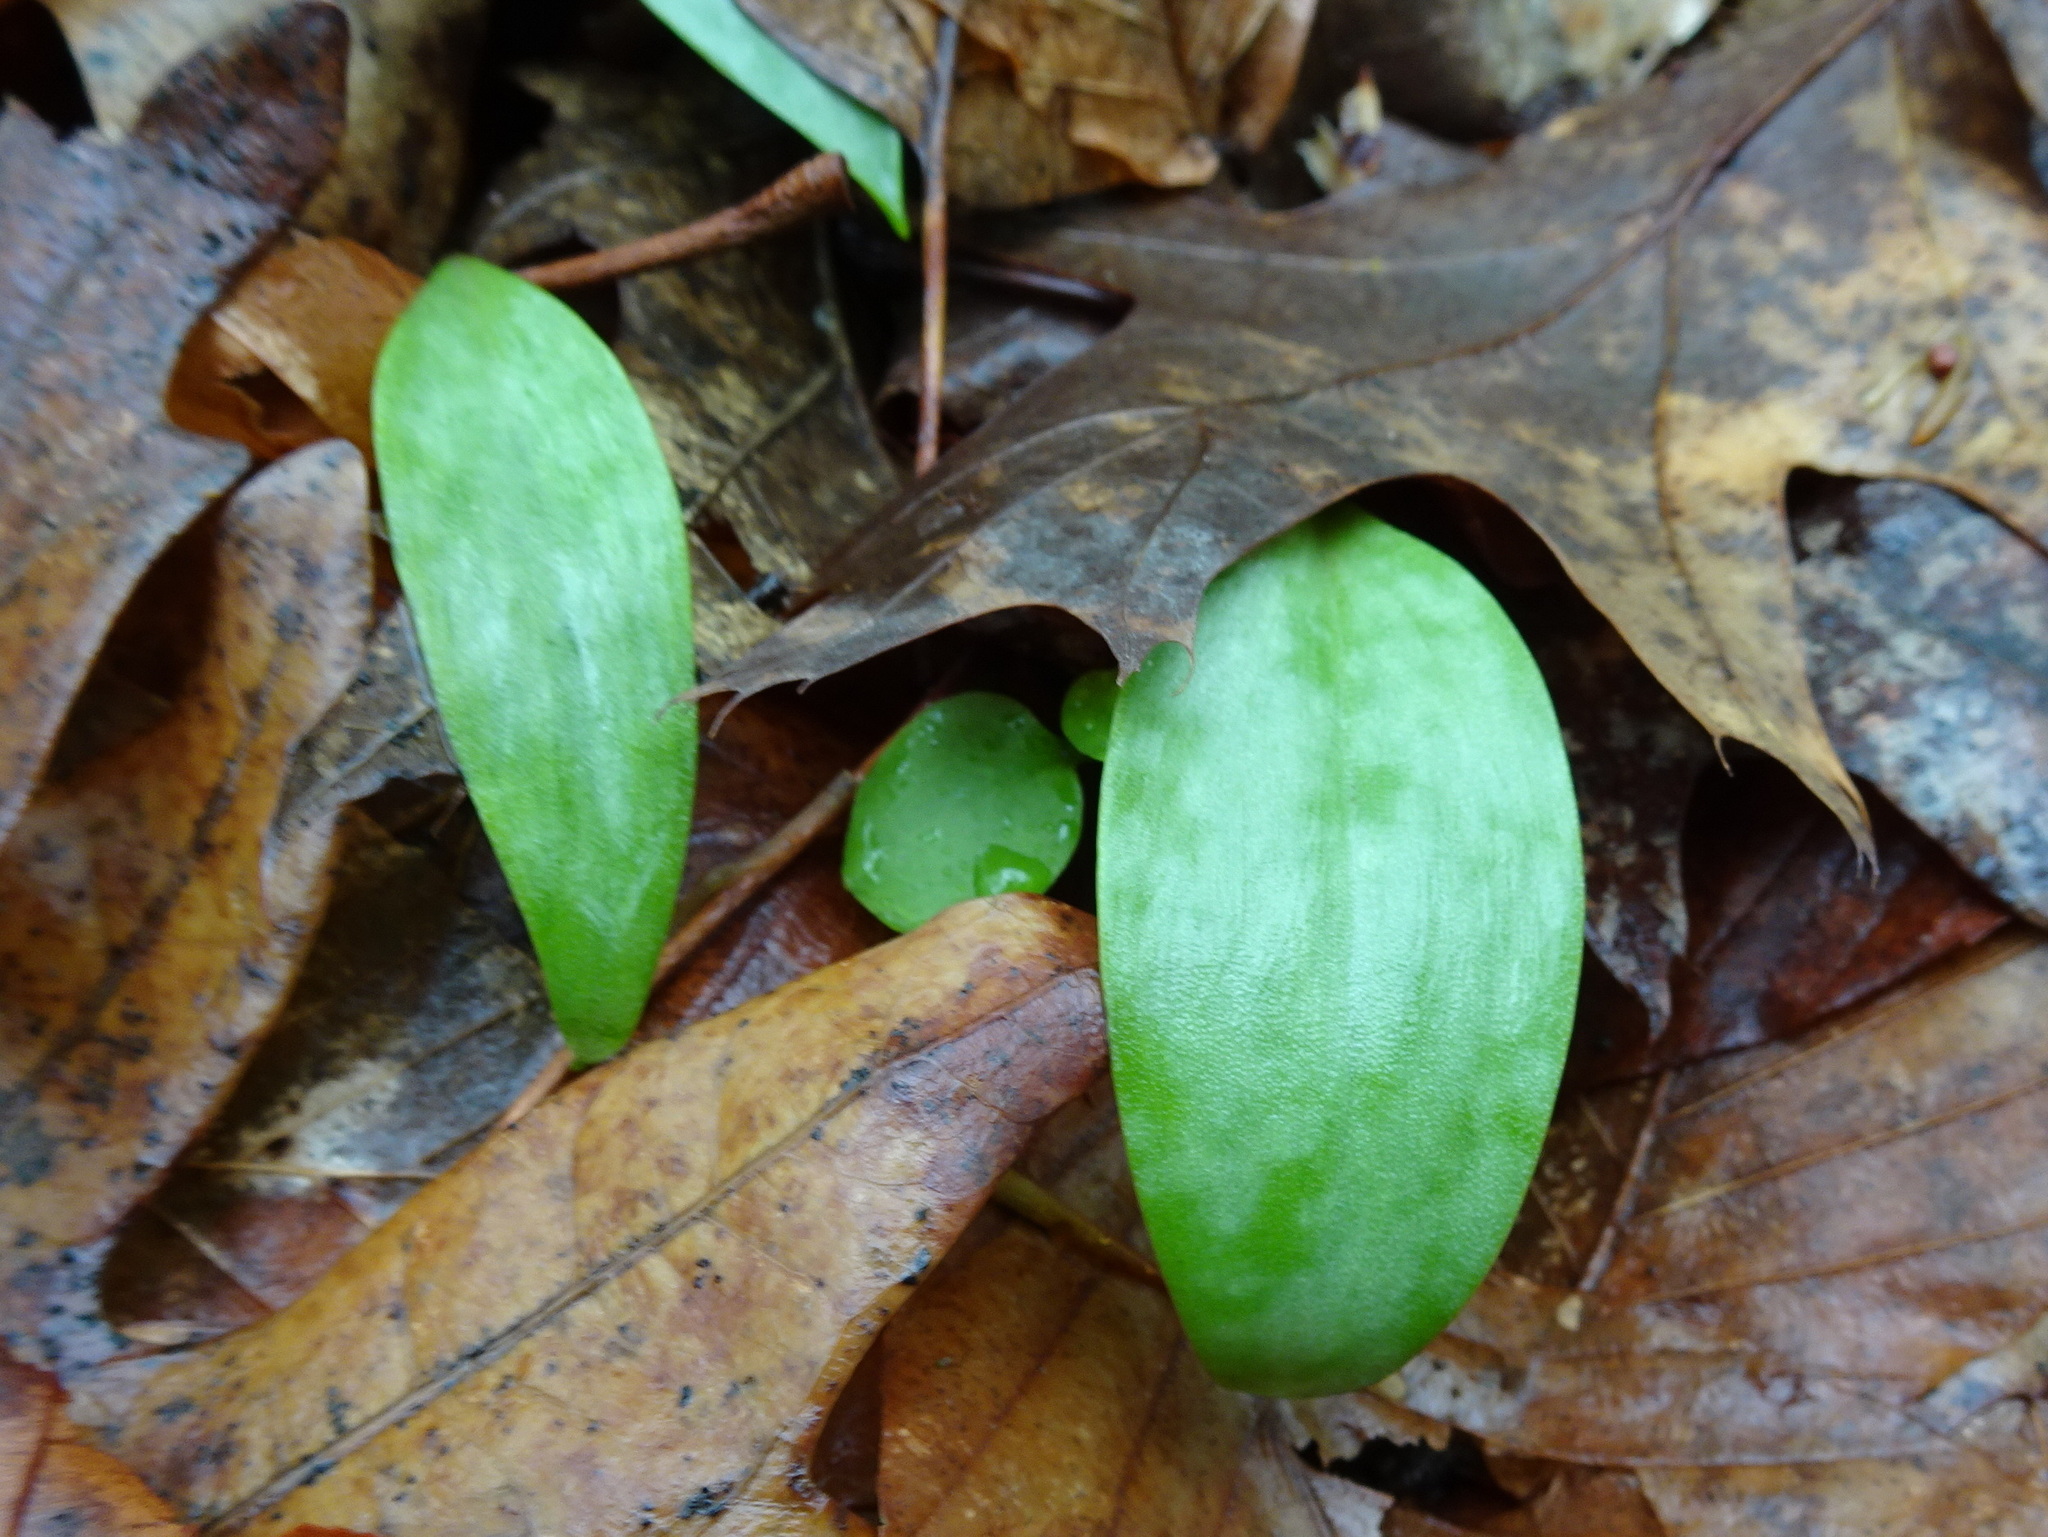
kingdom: Plantae
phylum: Tracheophyta
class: Liliopsida
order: Liliales
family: Liliaceae
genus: Erythronium
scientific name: Erythronium americanum
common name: Yellow adder's-tongue
